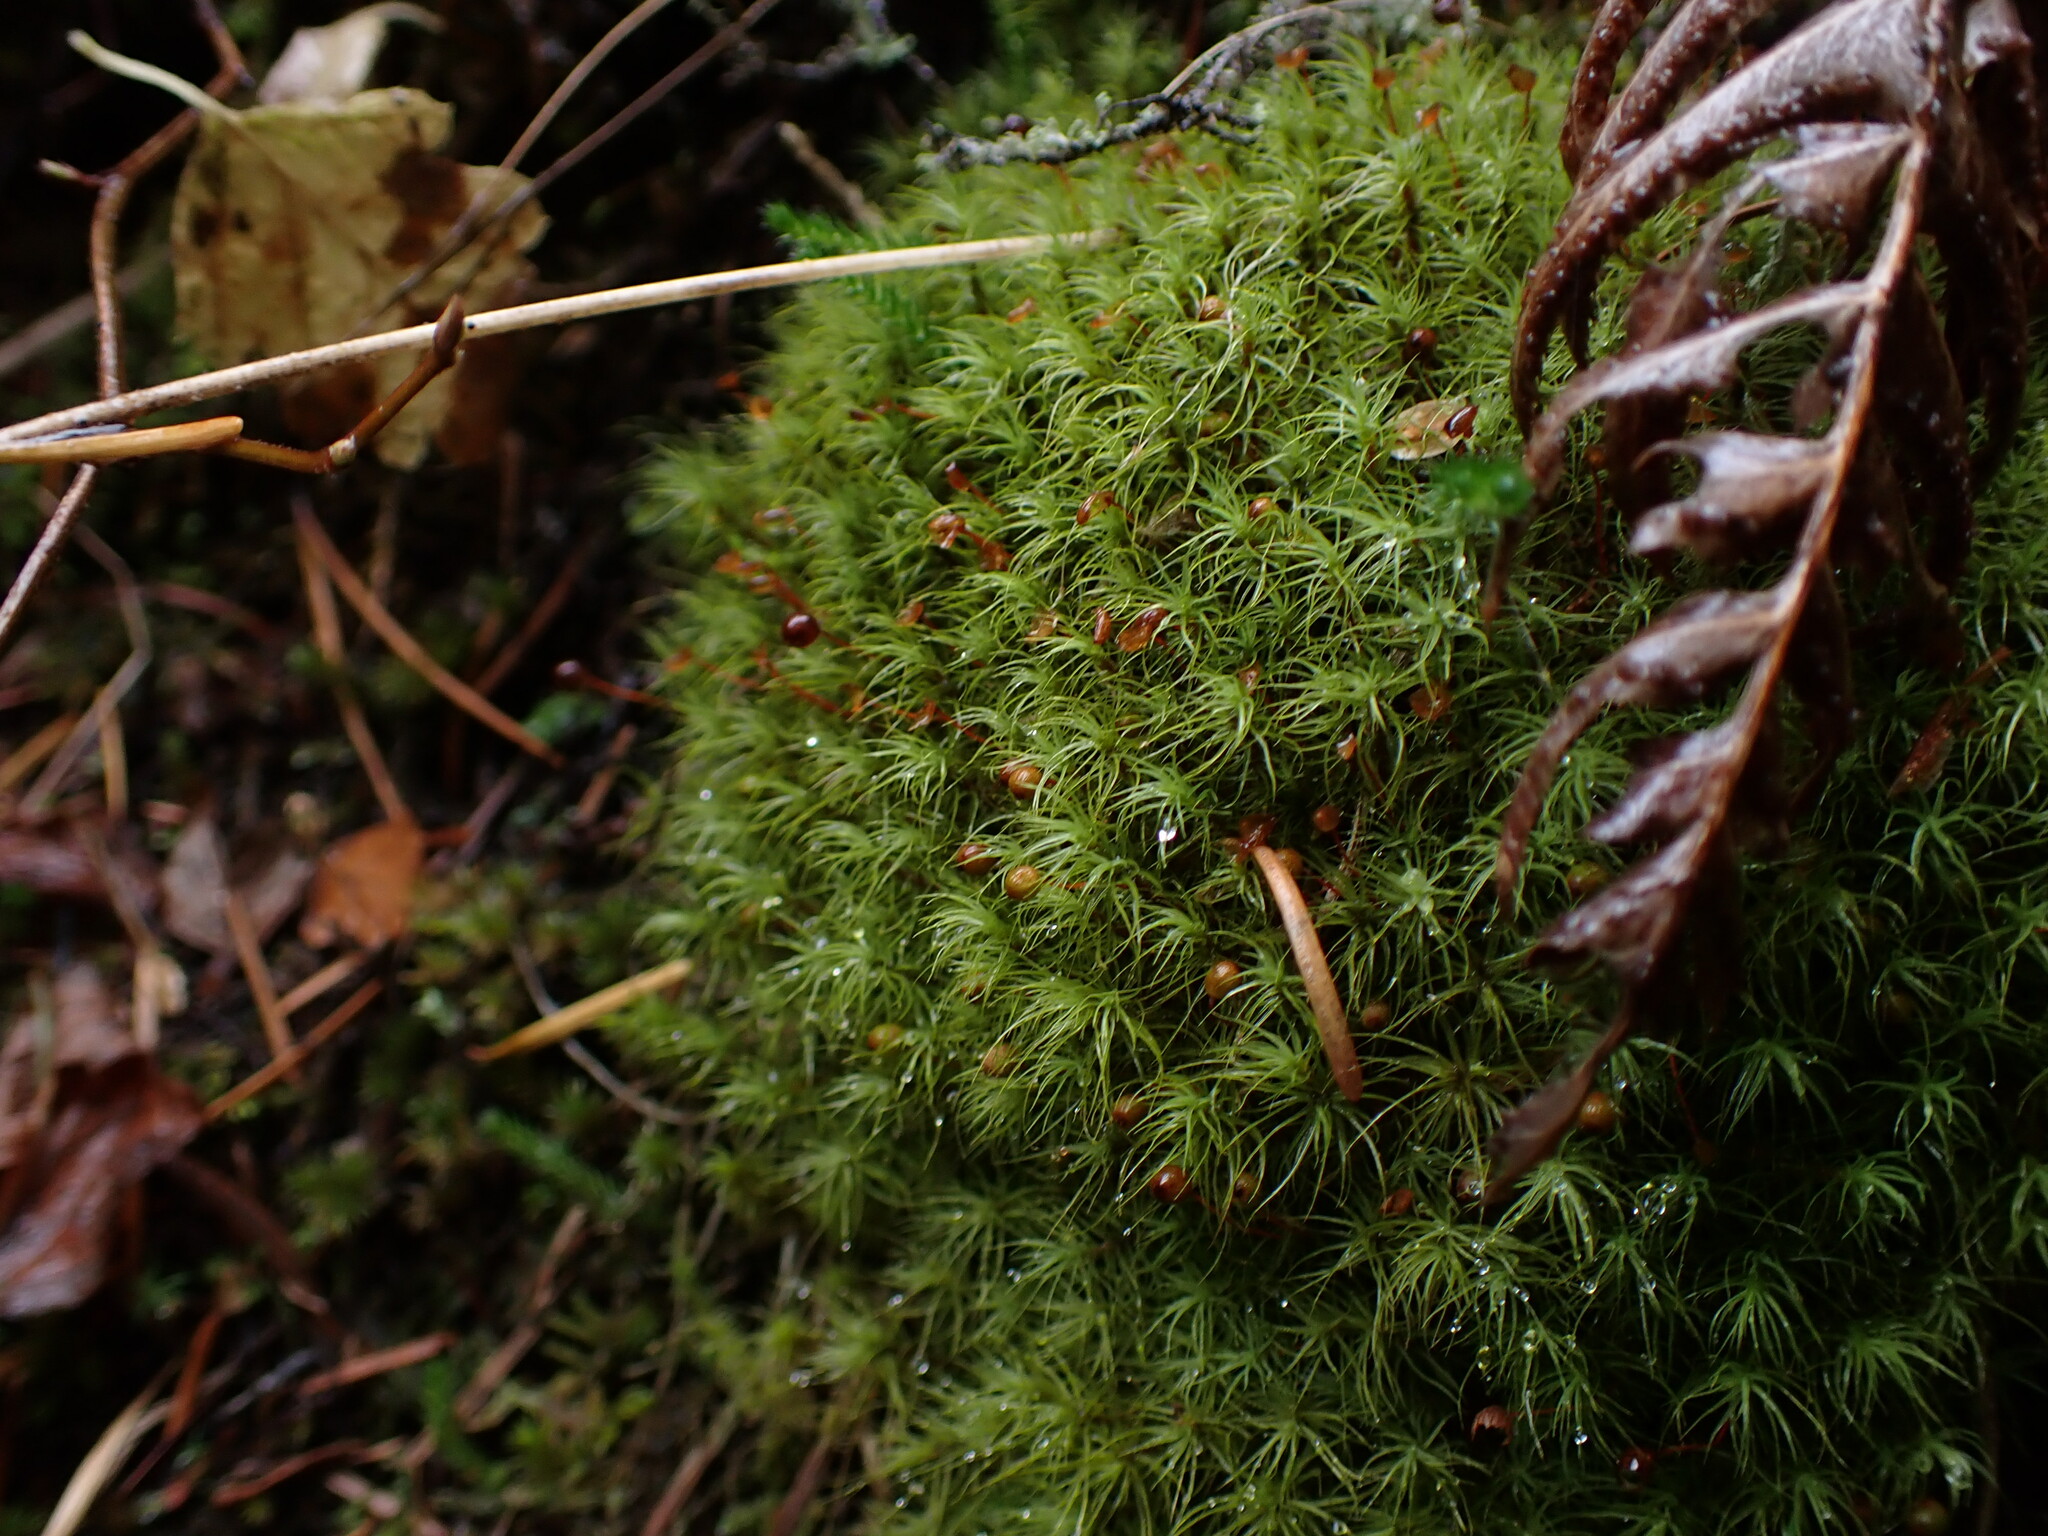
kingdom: Plantae
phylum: Bryophyta
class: Bryopsida
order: Bartramiales
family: Bartramiaceae
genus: Bartramia
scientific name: Bartramia ithyphylla
